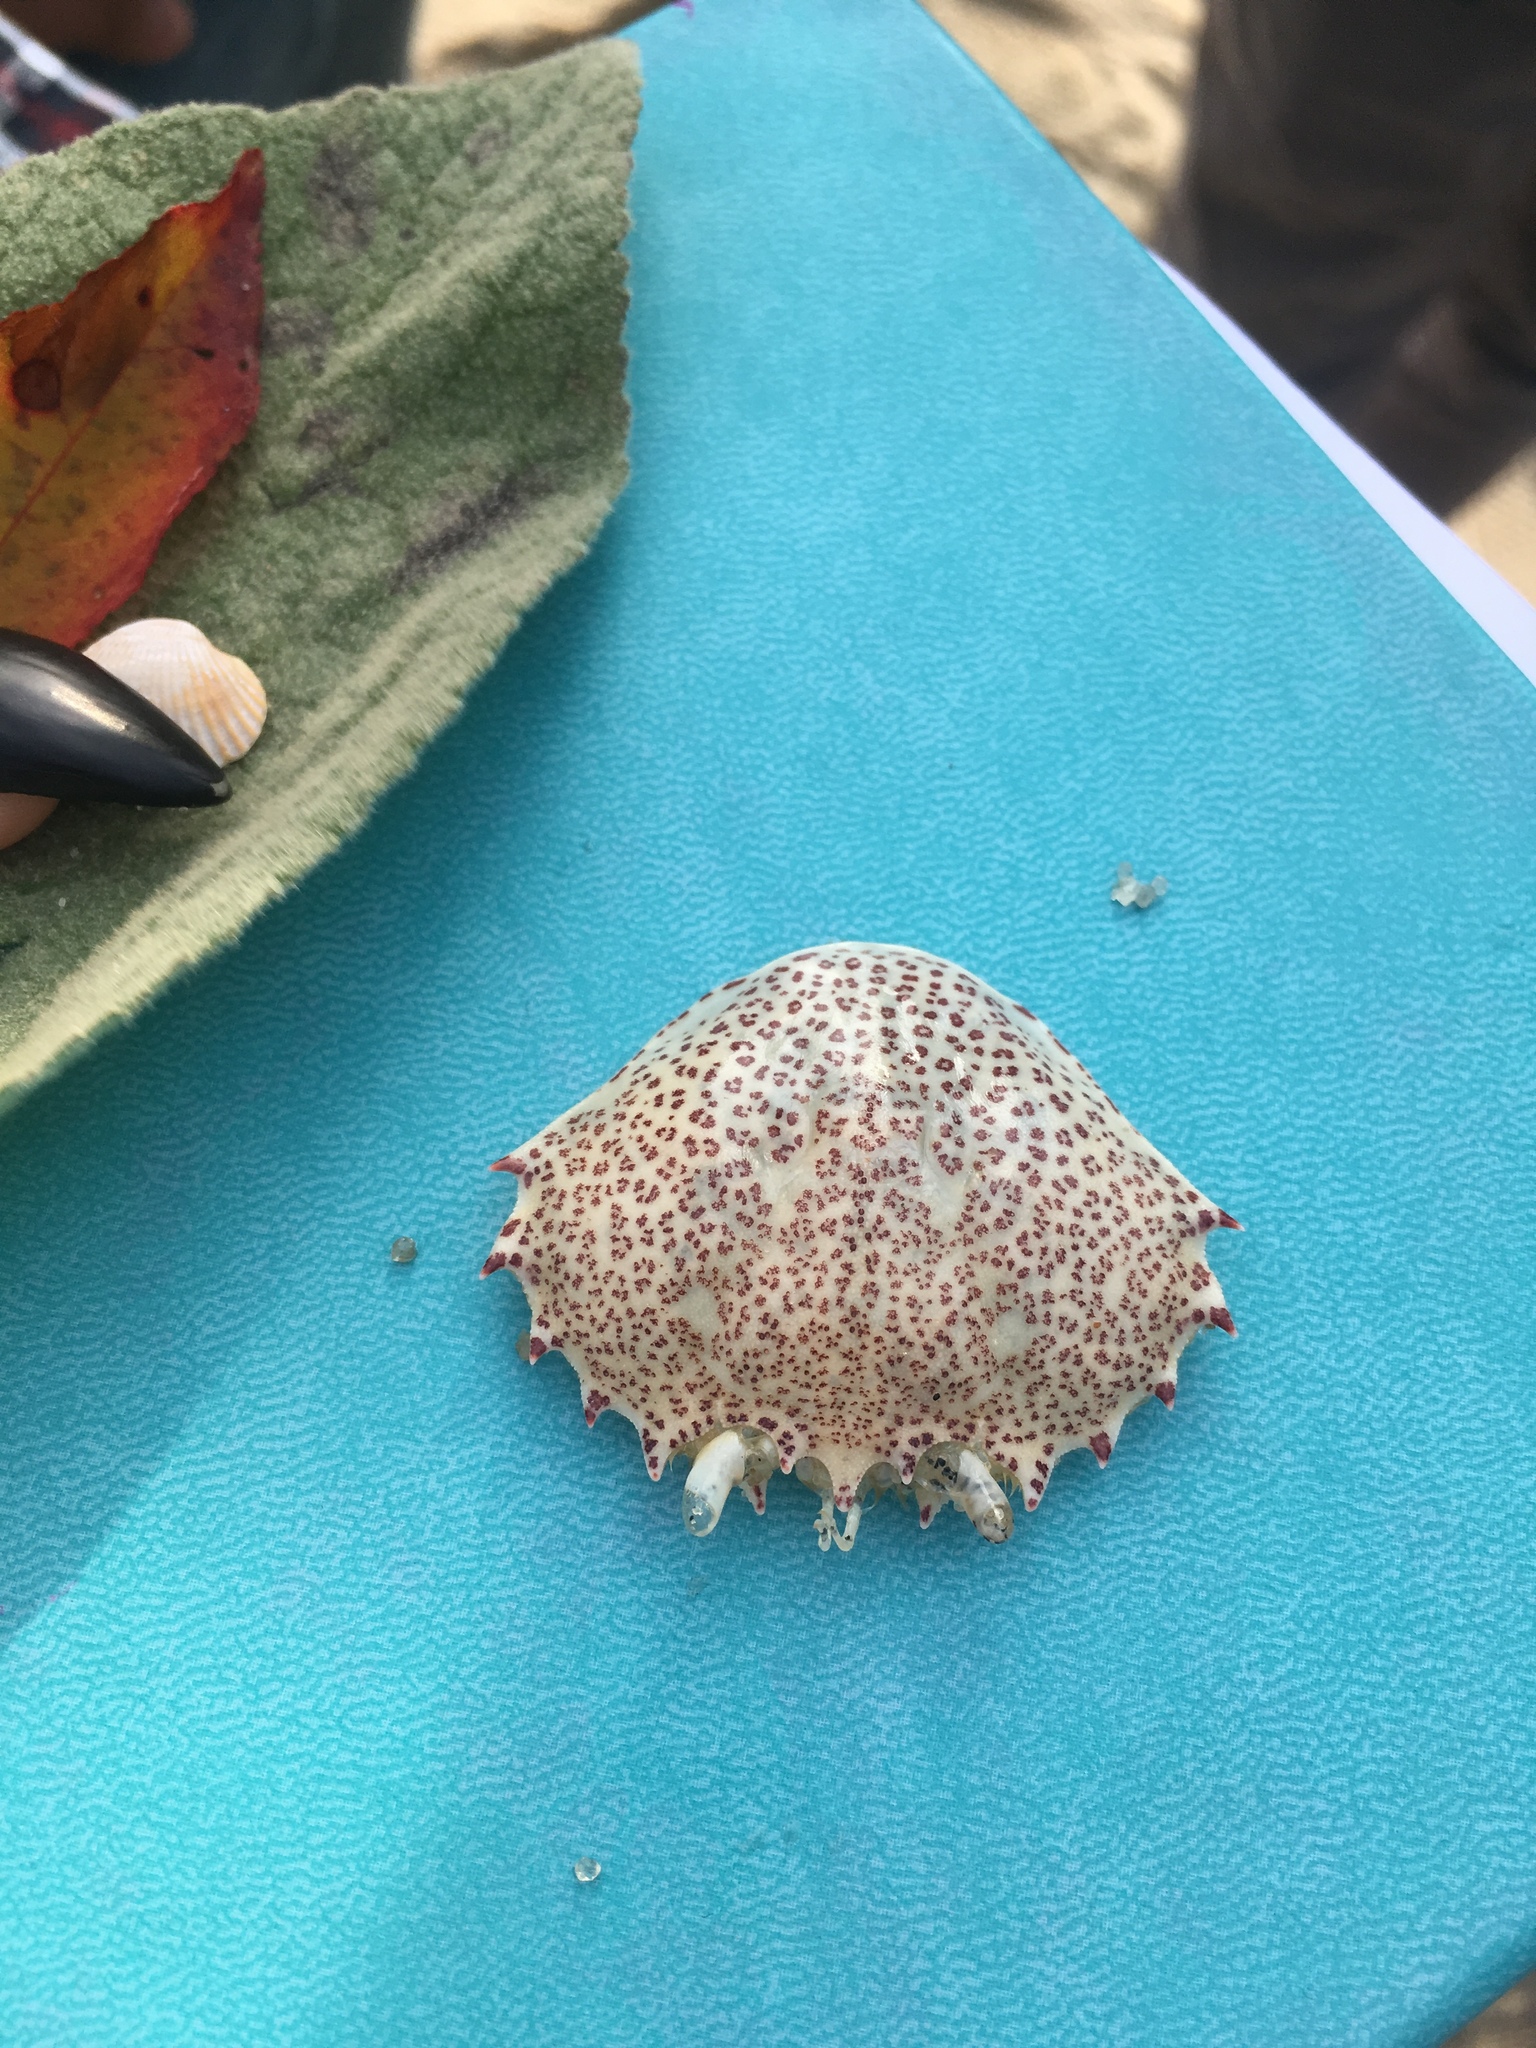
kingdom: Animalia
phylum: Arthropoda
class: Malacostraca
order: Decapoda
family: Ovalipidae
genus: Ovalipes
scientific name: Ovalipes ocellatus
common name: Lady crab
